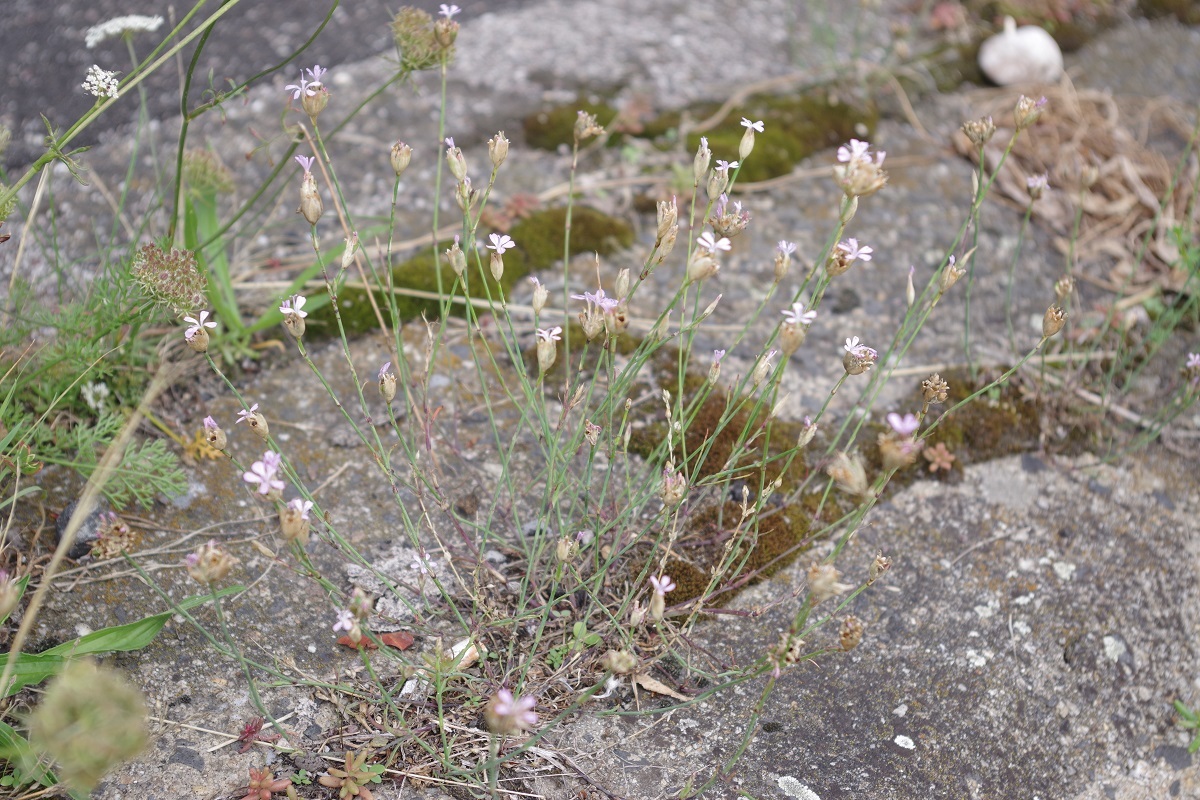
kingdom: Plantae
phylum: Tracheophyta
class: Magnoliopsida
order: Caryophyllales
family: Caryophyllaceae
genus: Petrorhagia
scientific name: Petrorhagia prolifera
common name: Proliferous pink
